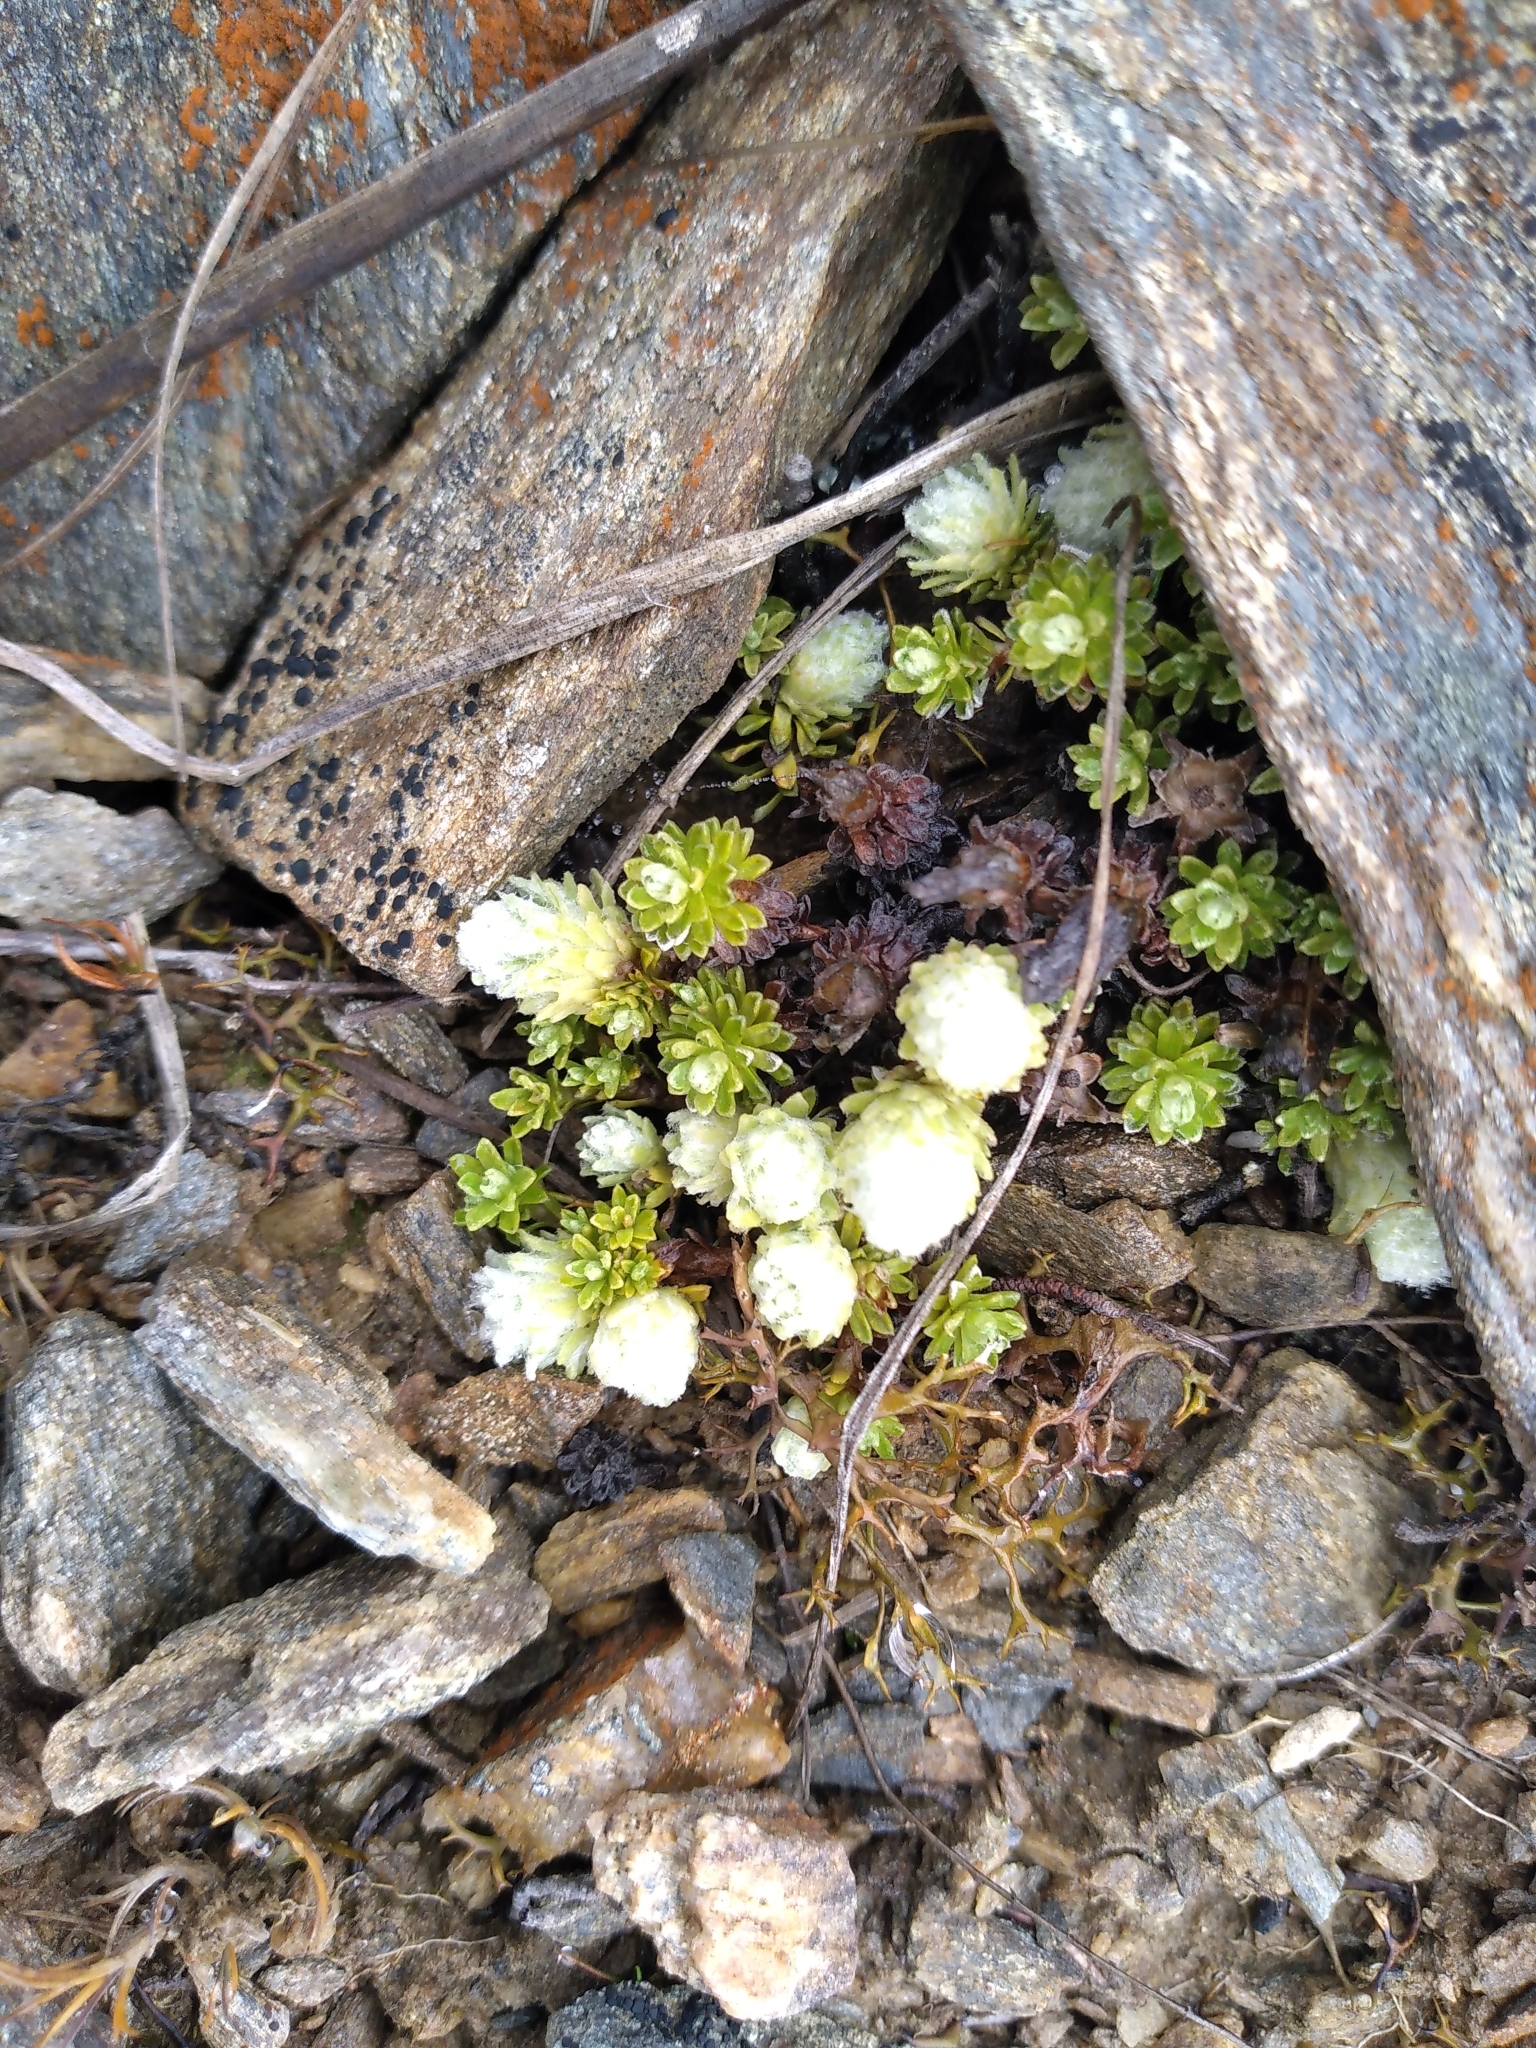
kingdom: Plantae
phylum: Tracheophyta
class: Magnoliopsida
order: Asterales
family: Asteraceae
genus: Raoulia
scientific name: Raoulia subsericea
